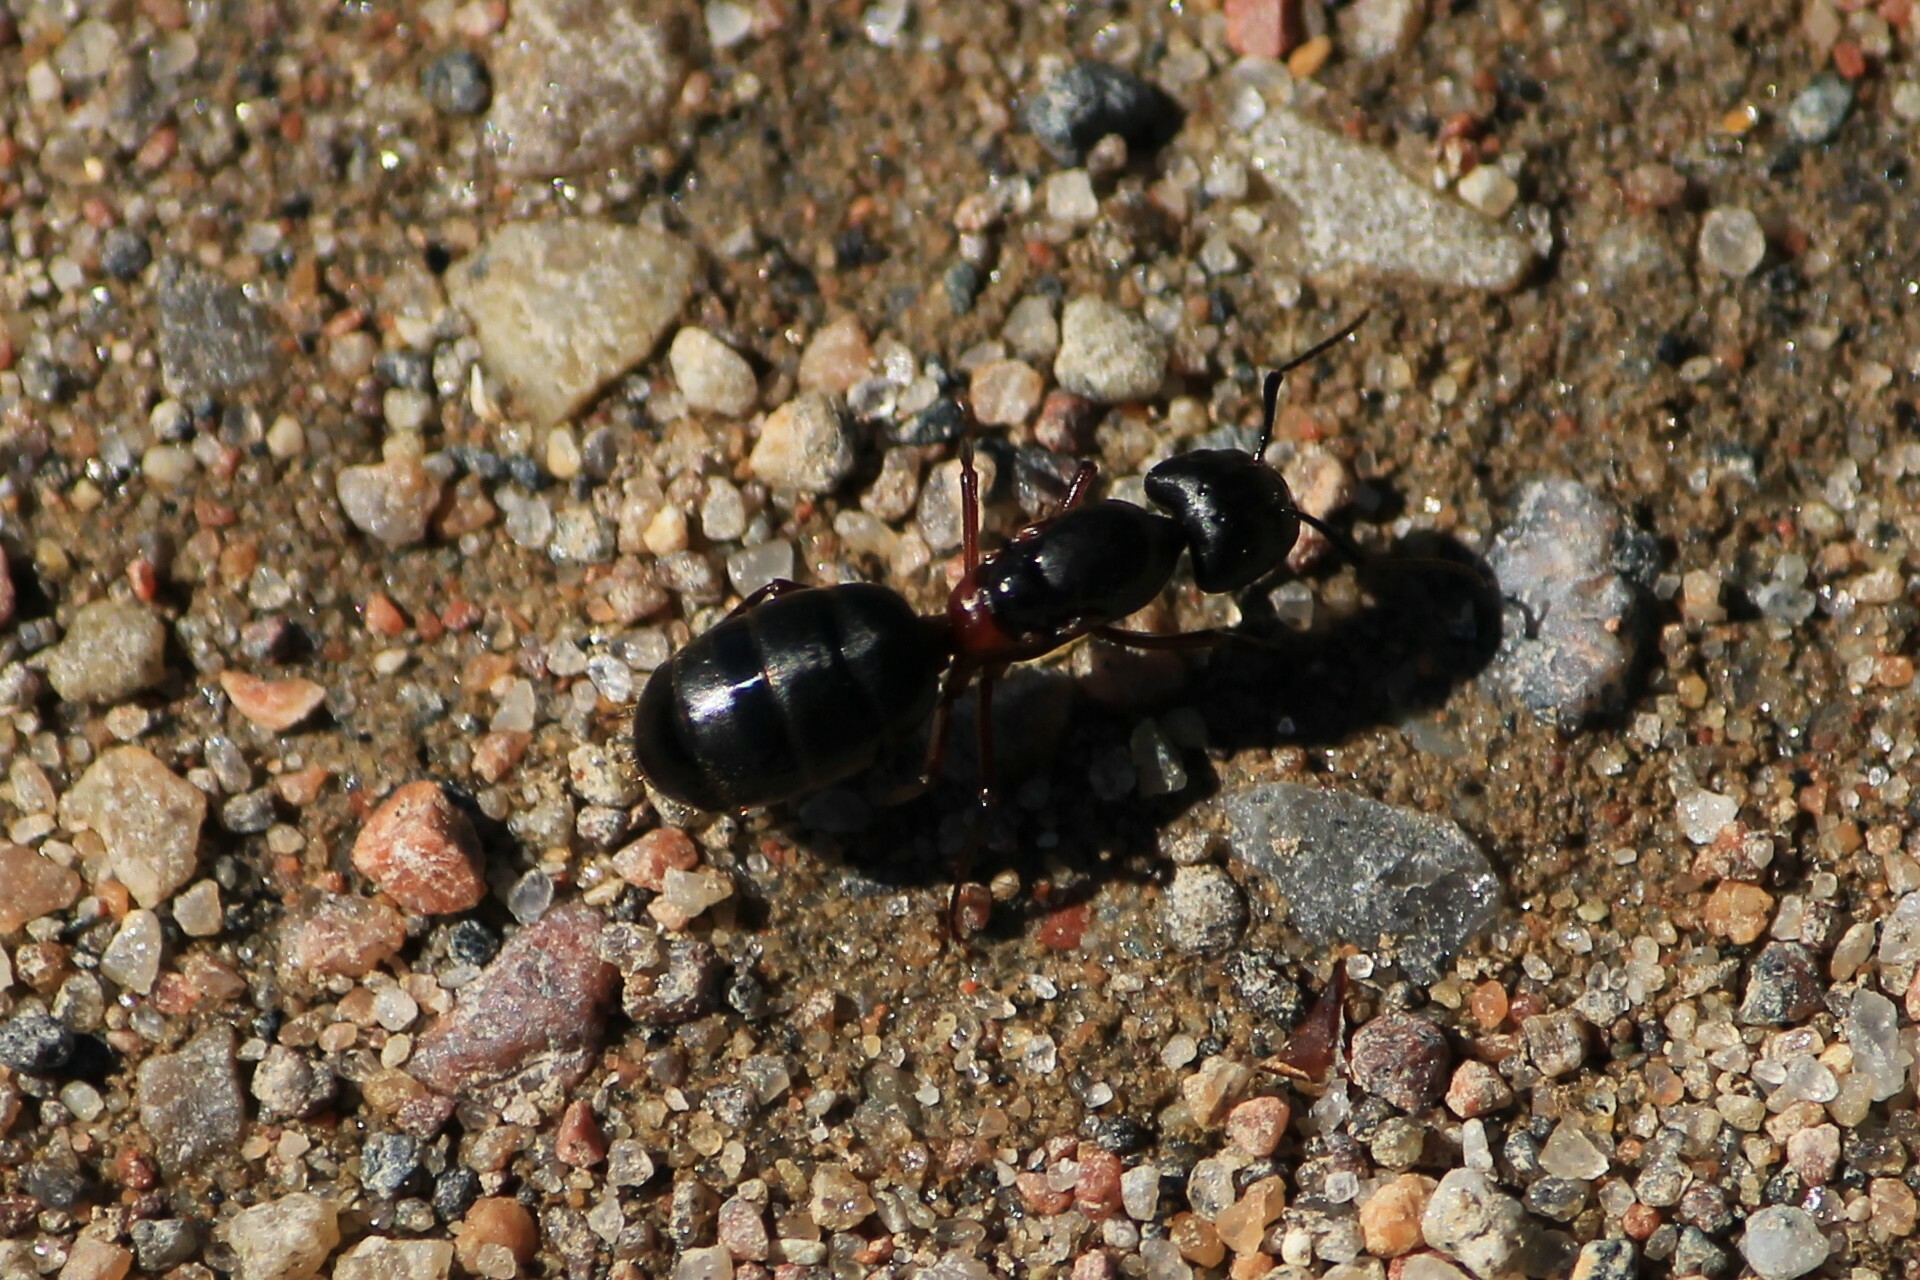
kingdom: Animalia
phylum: Arthropoda
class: Insecta
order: Hymenoptera
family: Formicidae
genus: Camponotus
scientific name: Camponotus herculeanus
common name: Hercules ant
